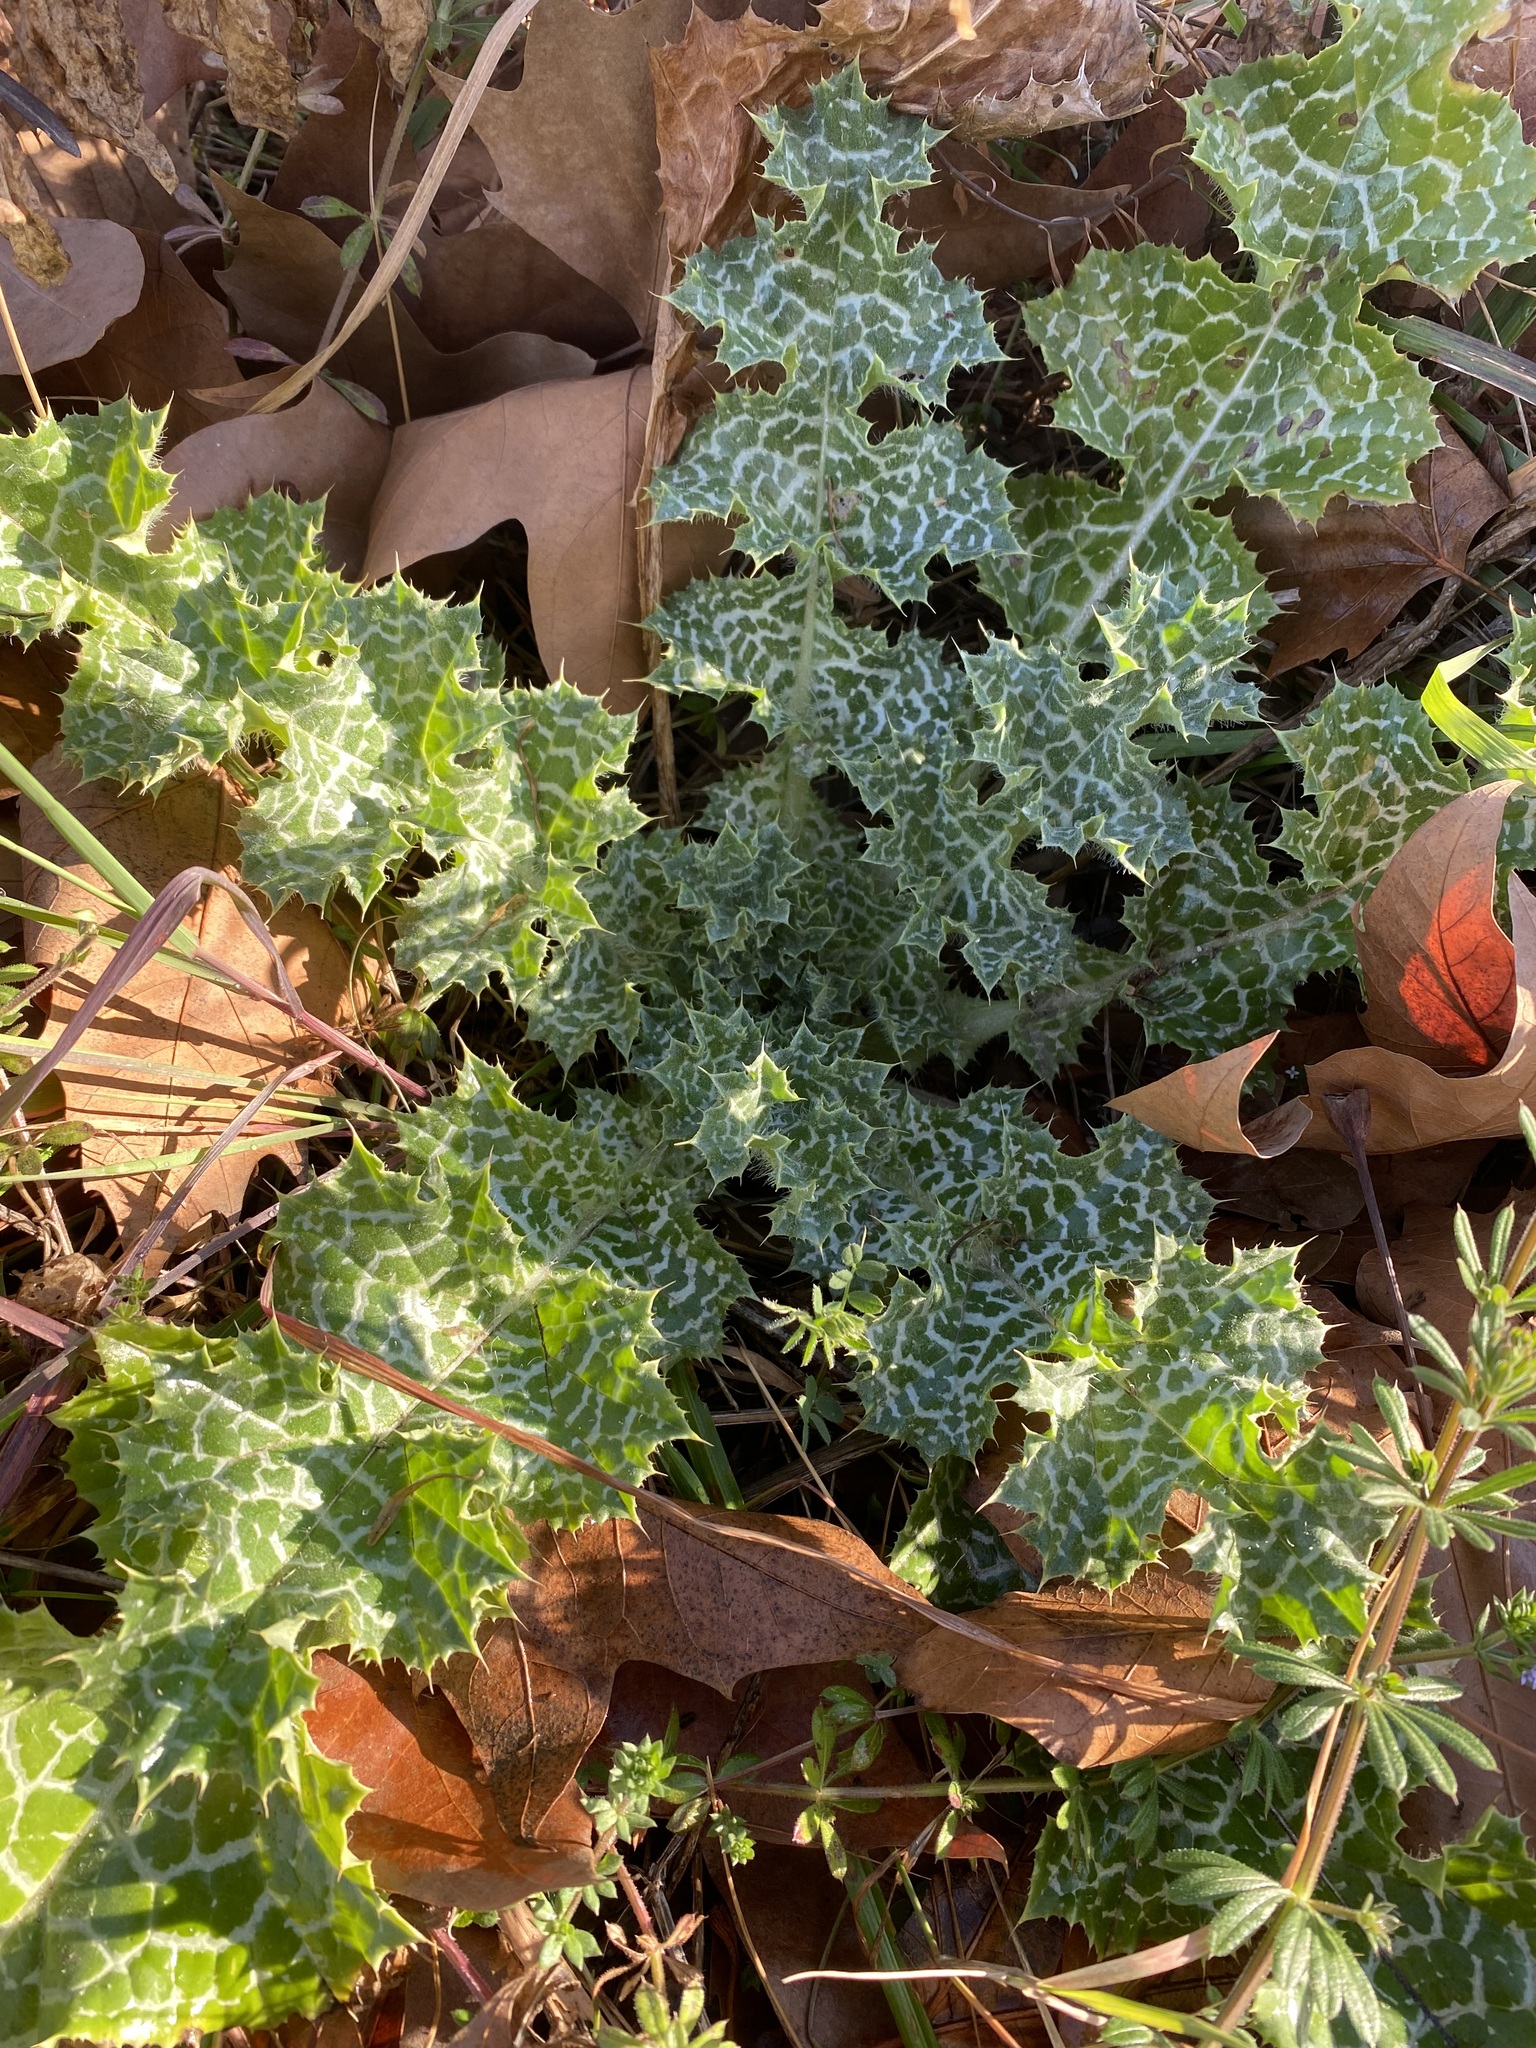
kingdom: Plantae
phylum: Tracheophyta
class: Magnoliopsida
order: Asterales
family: Asteraceae
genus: Silybum
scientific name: Silybum marianum
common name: Milk thistle
